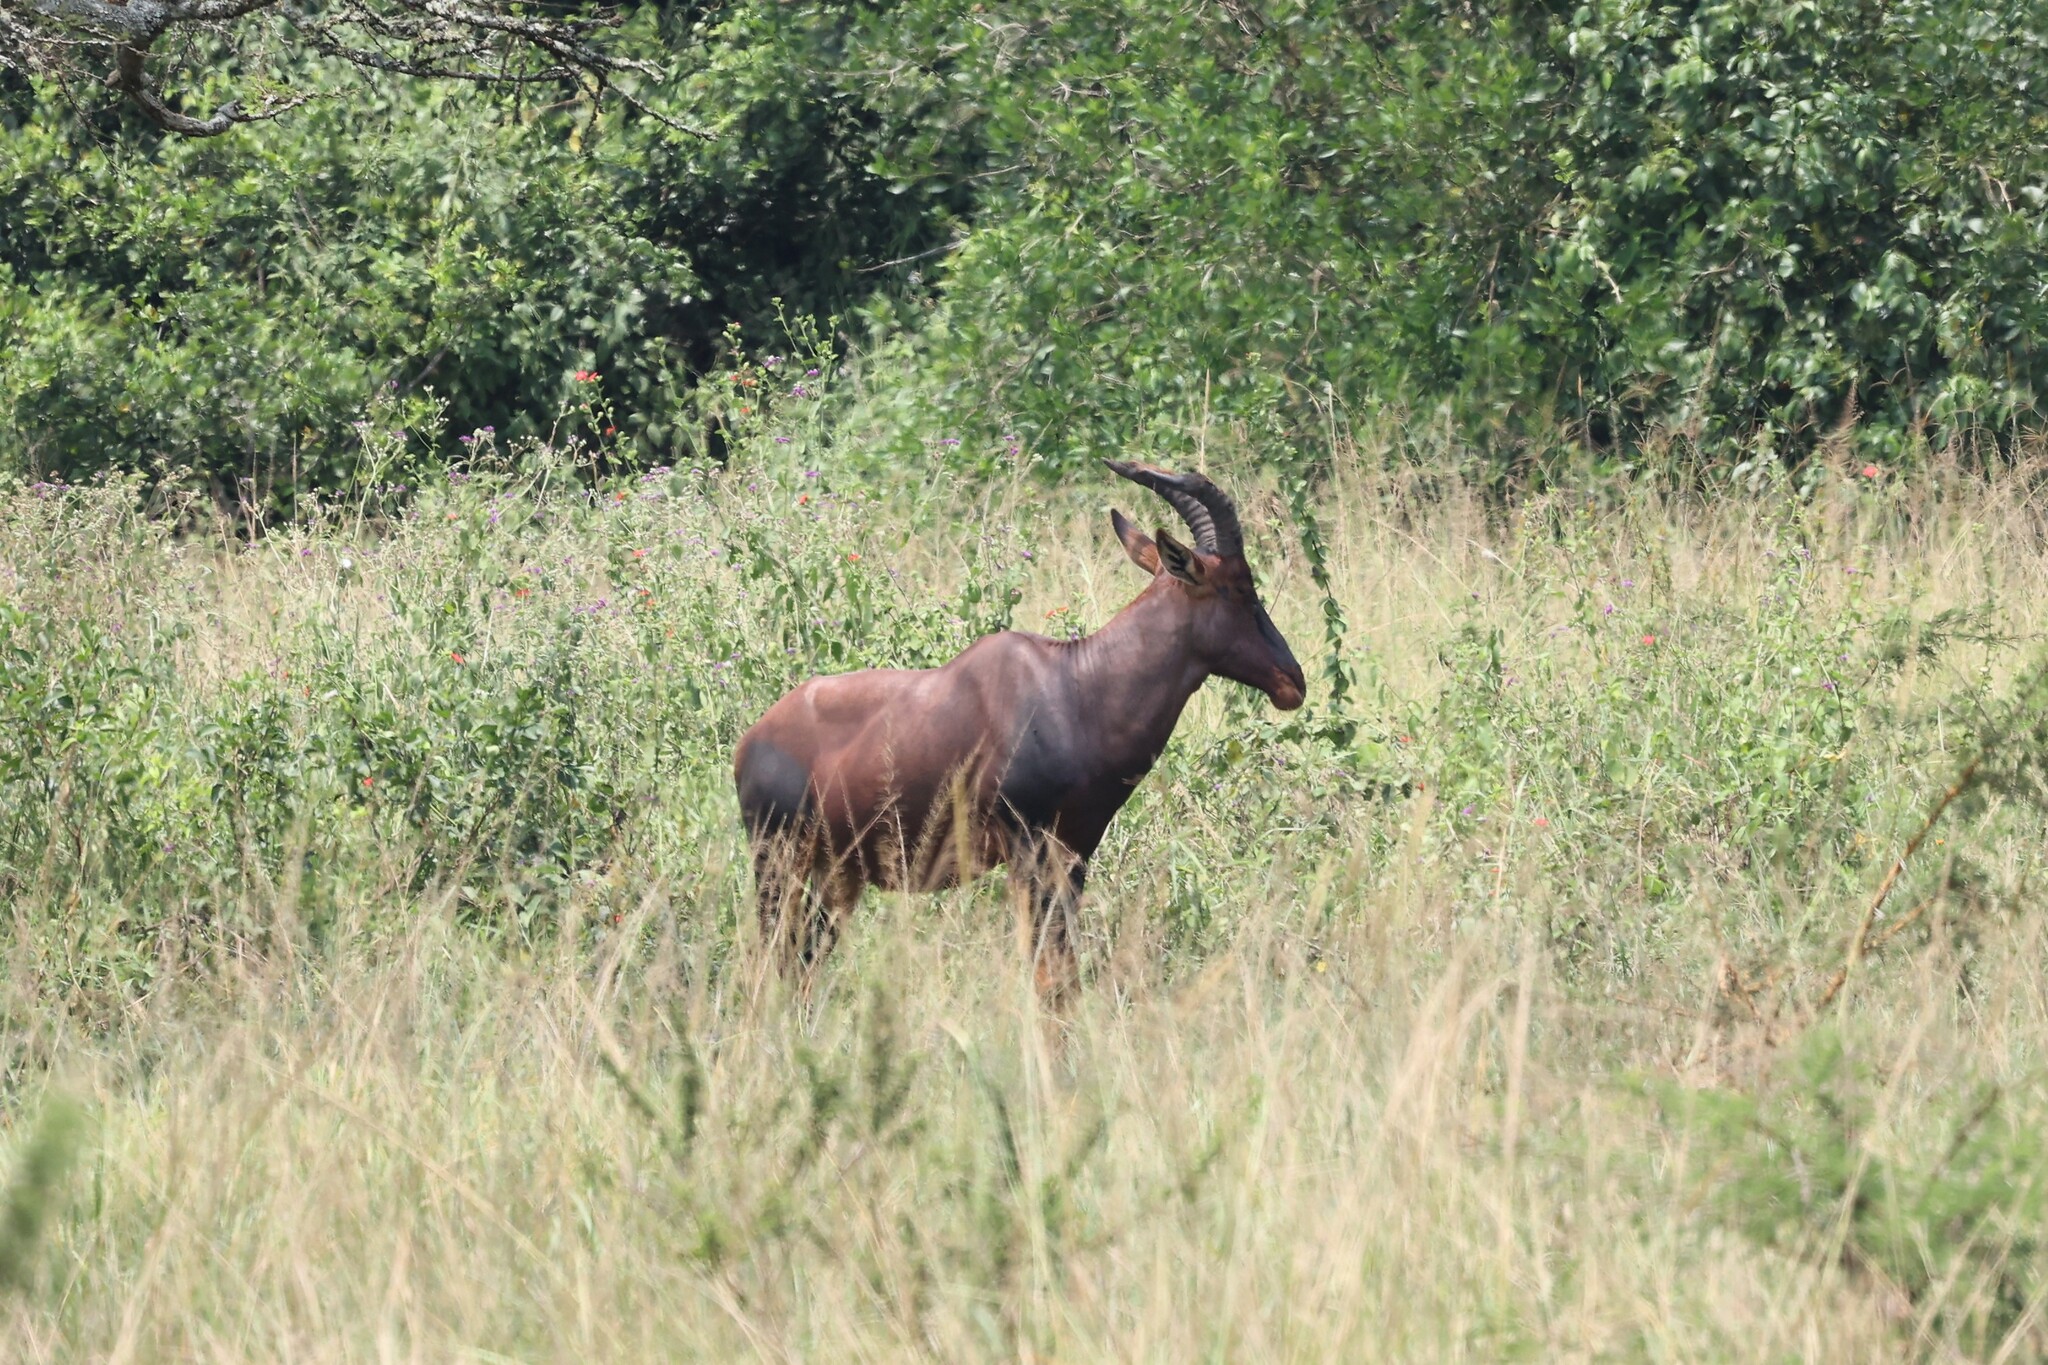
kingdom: Animalia
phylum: Chordata
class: Mammalia
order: Artiodactyla
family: Bovidae
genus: Damaliscus
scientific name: Damaliscus korrigum
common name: Topi
